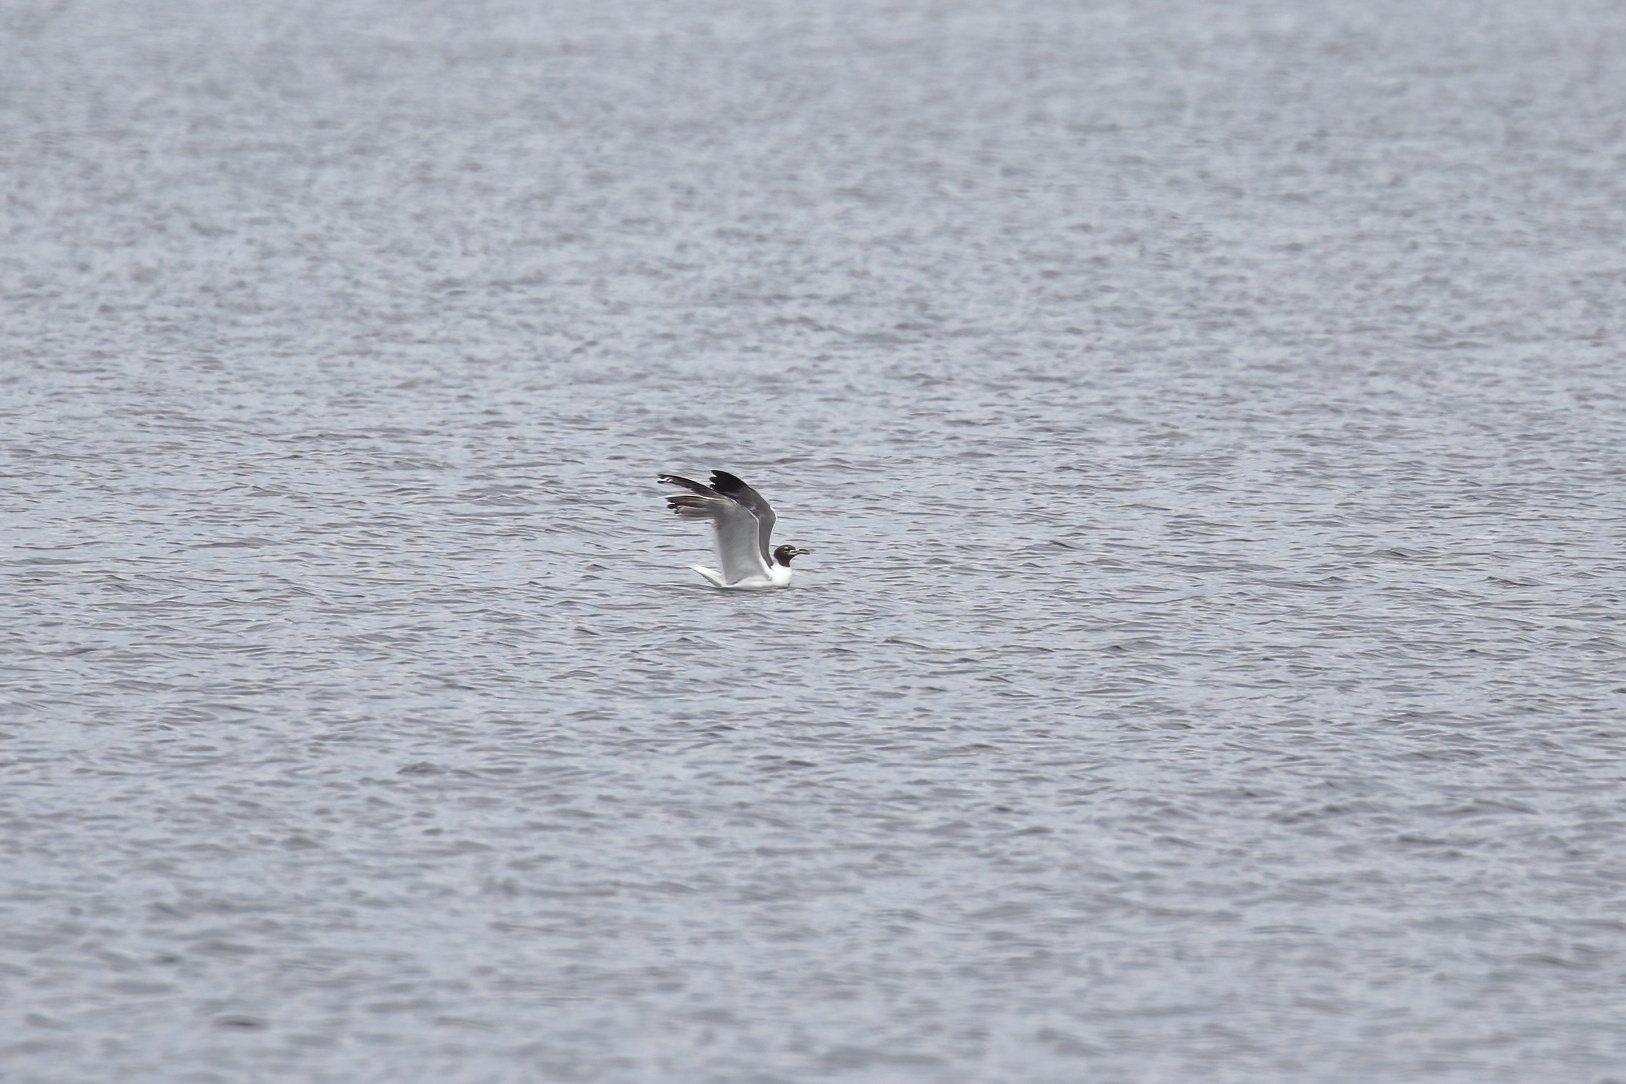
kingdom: Animalia
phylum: Chordata
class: Aves
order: Charadriiformes
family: Laridae
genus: Leucophaeus
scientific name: Leucophaeus atricilla
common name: Laughing gull
